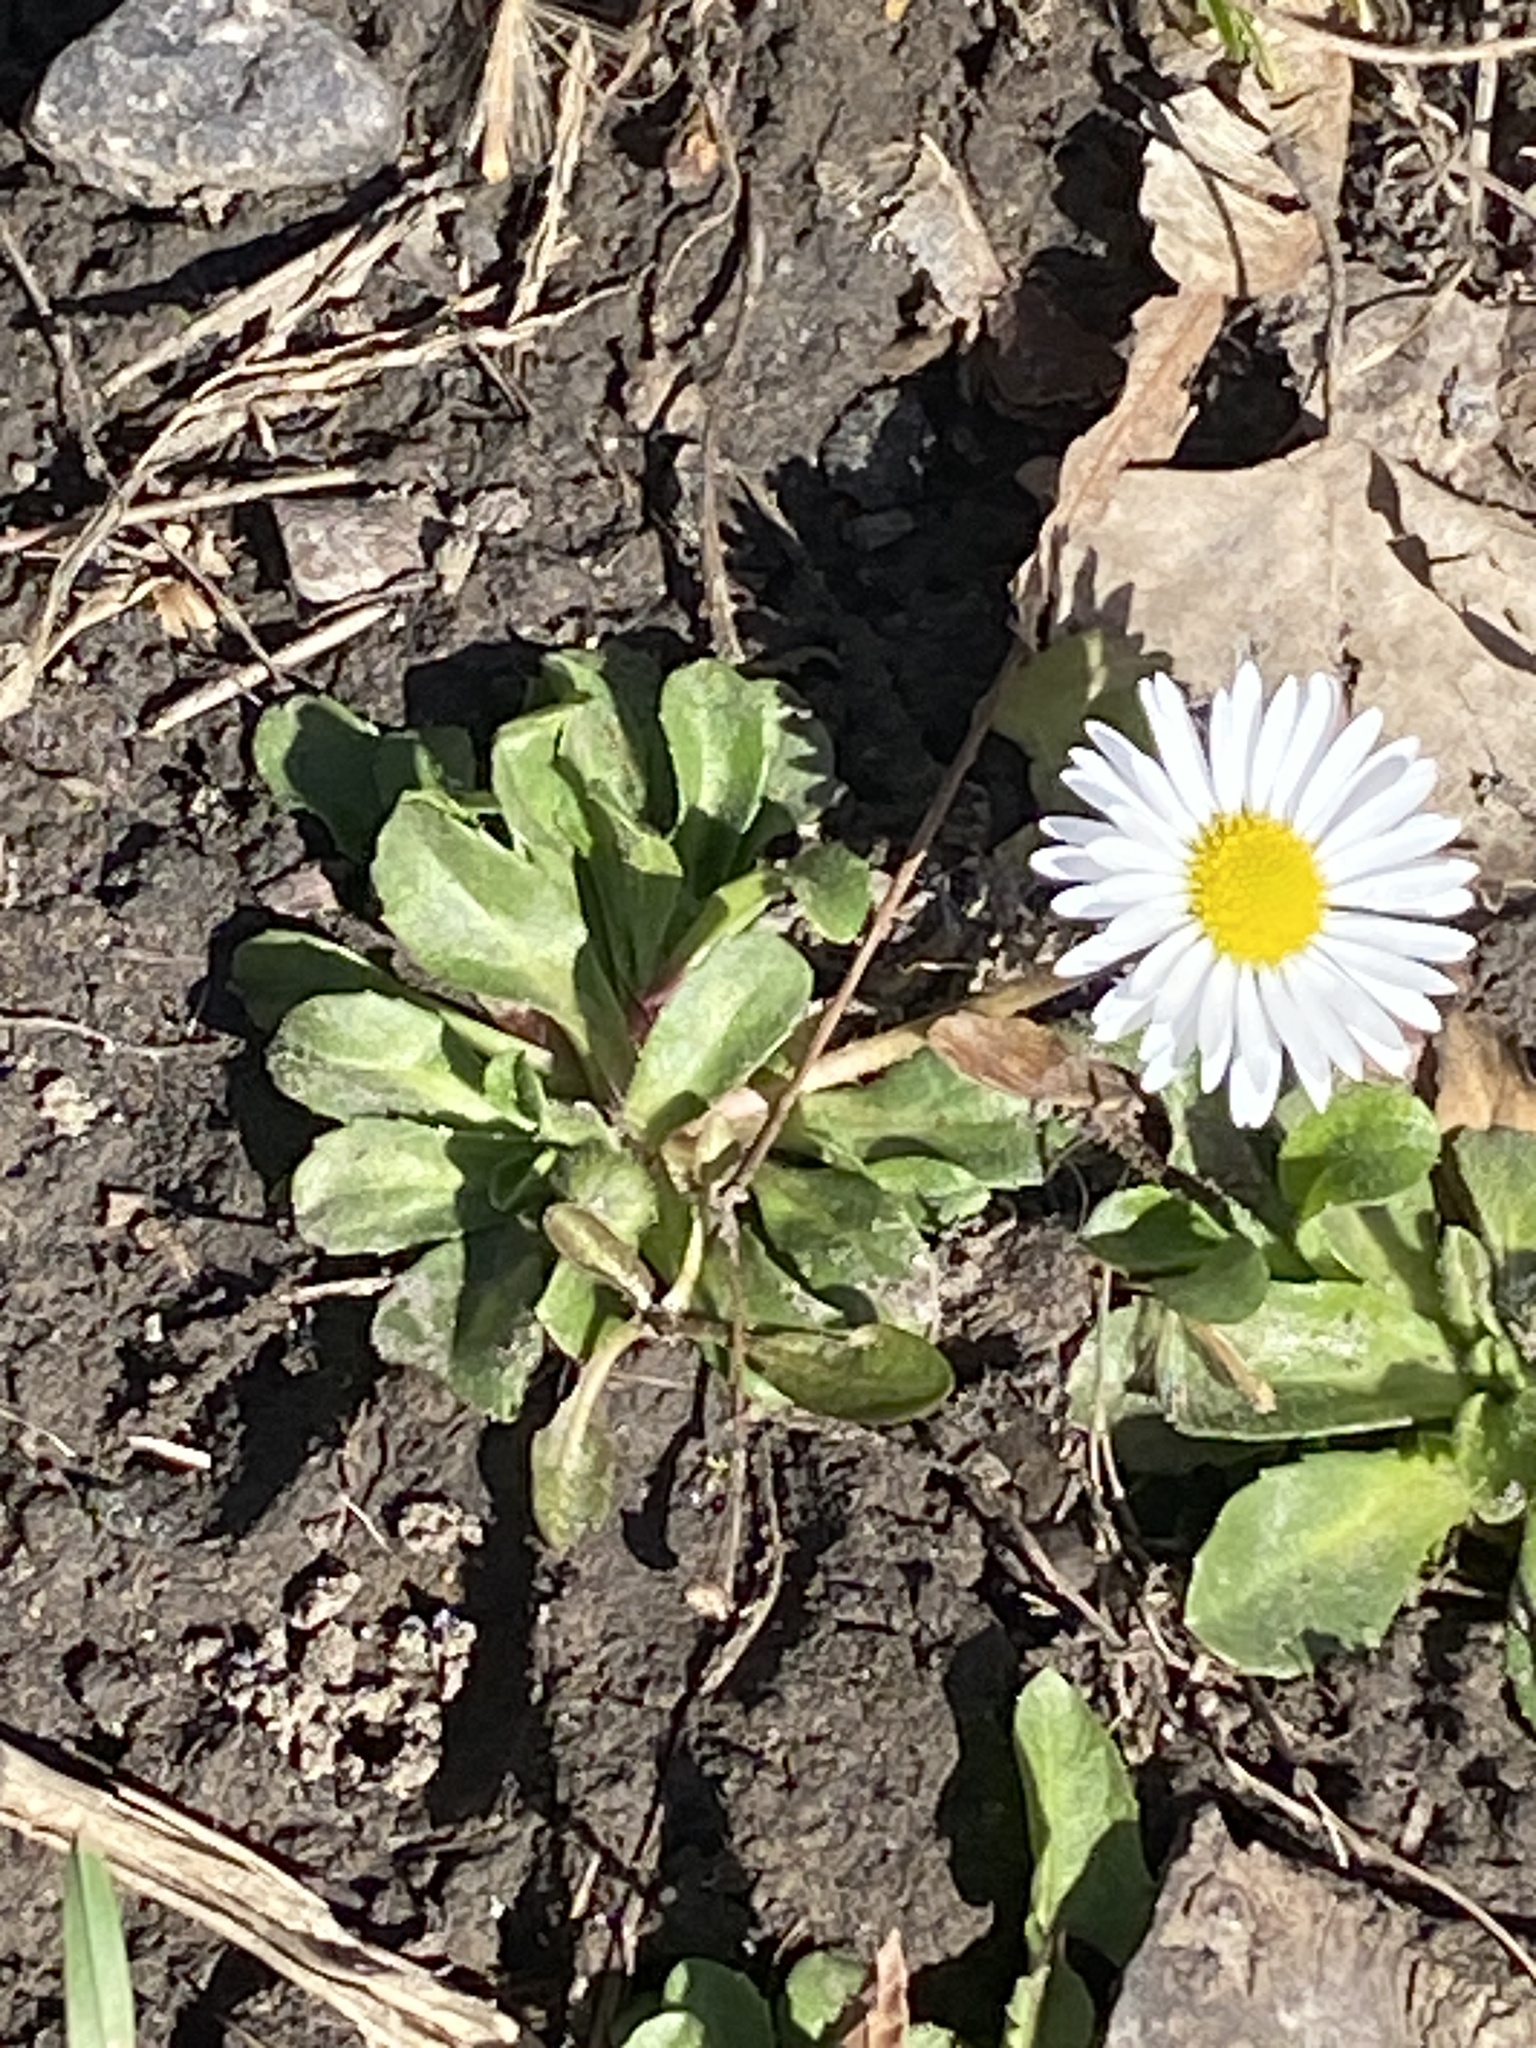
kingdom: Plantae
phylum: Tracheophyta
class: Magnoliopsida
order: Asterales
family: Asteraceae
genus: Bellis
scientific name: Bellis perennis
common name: Lawndaisy
